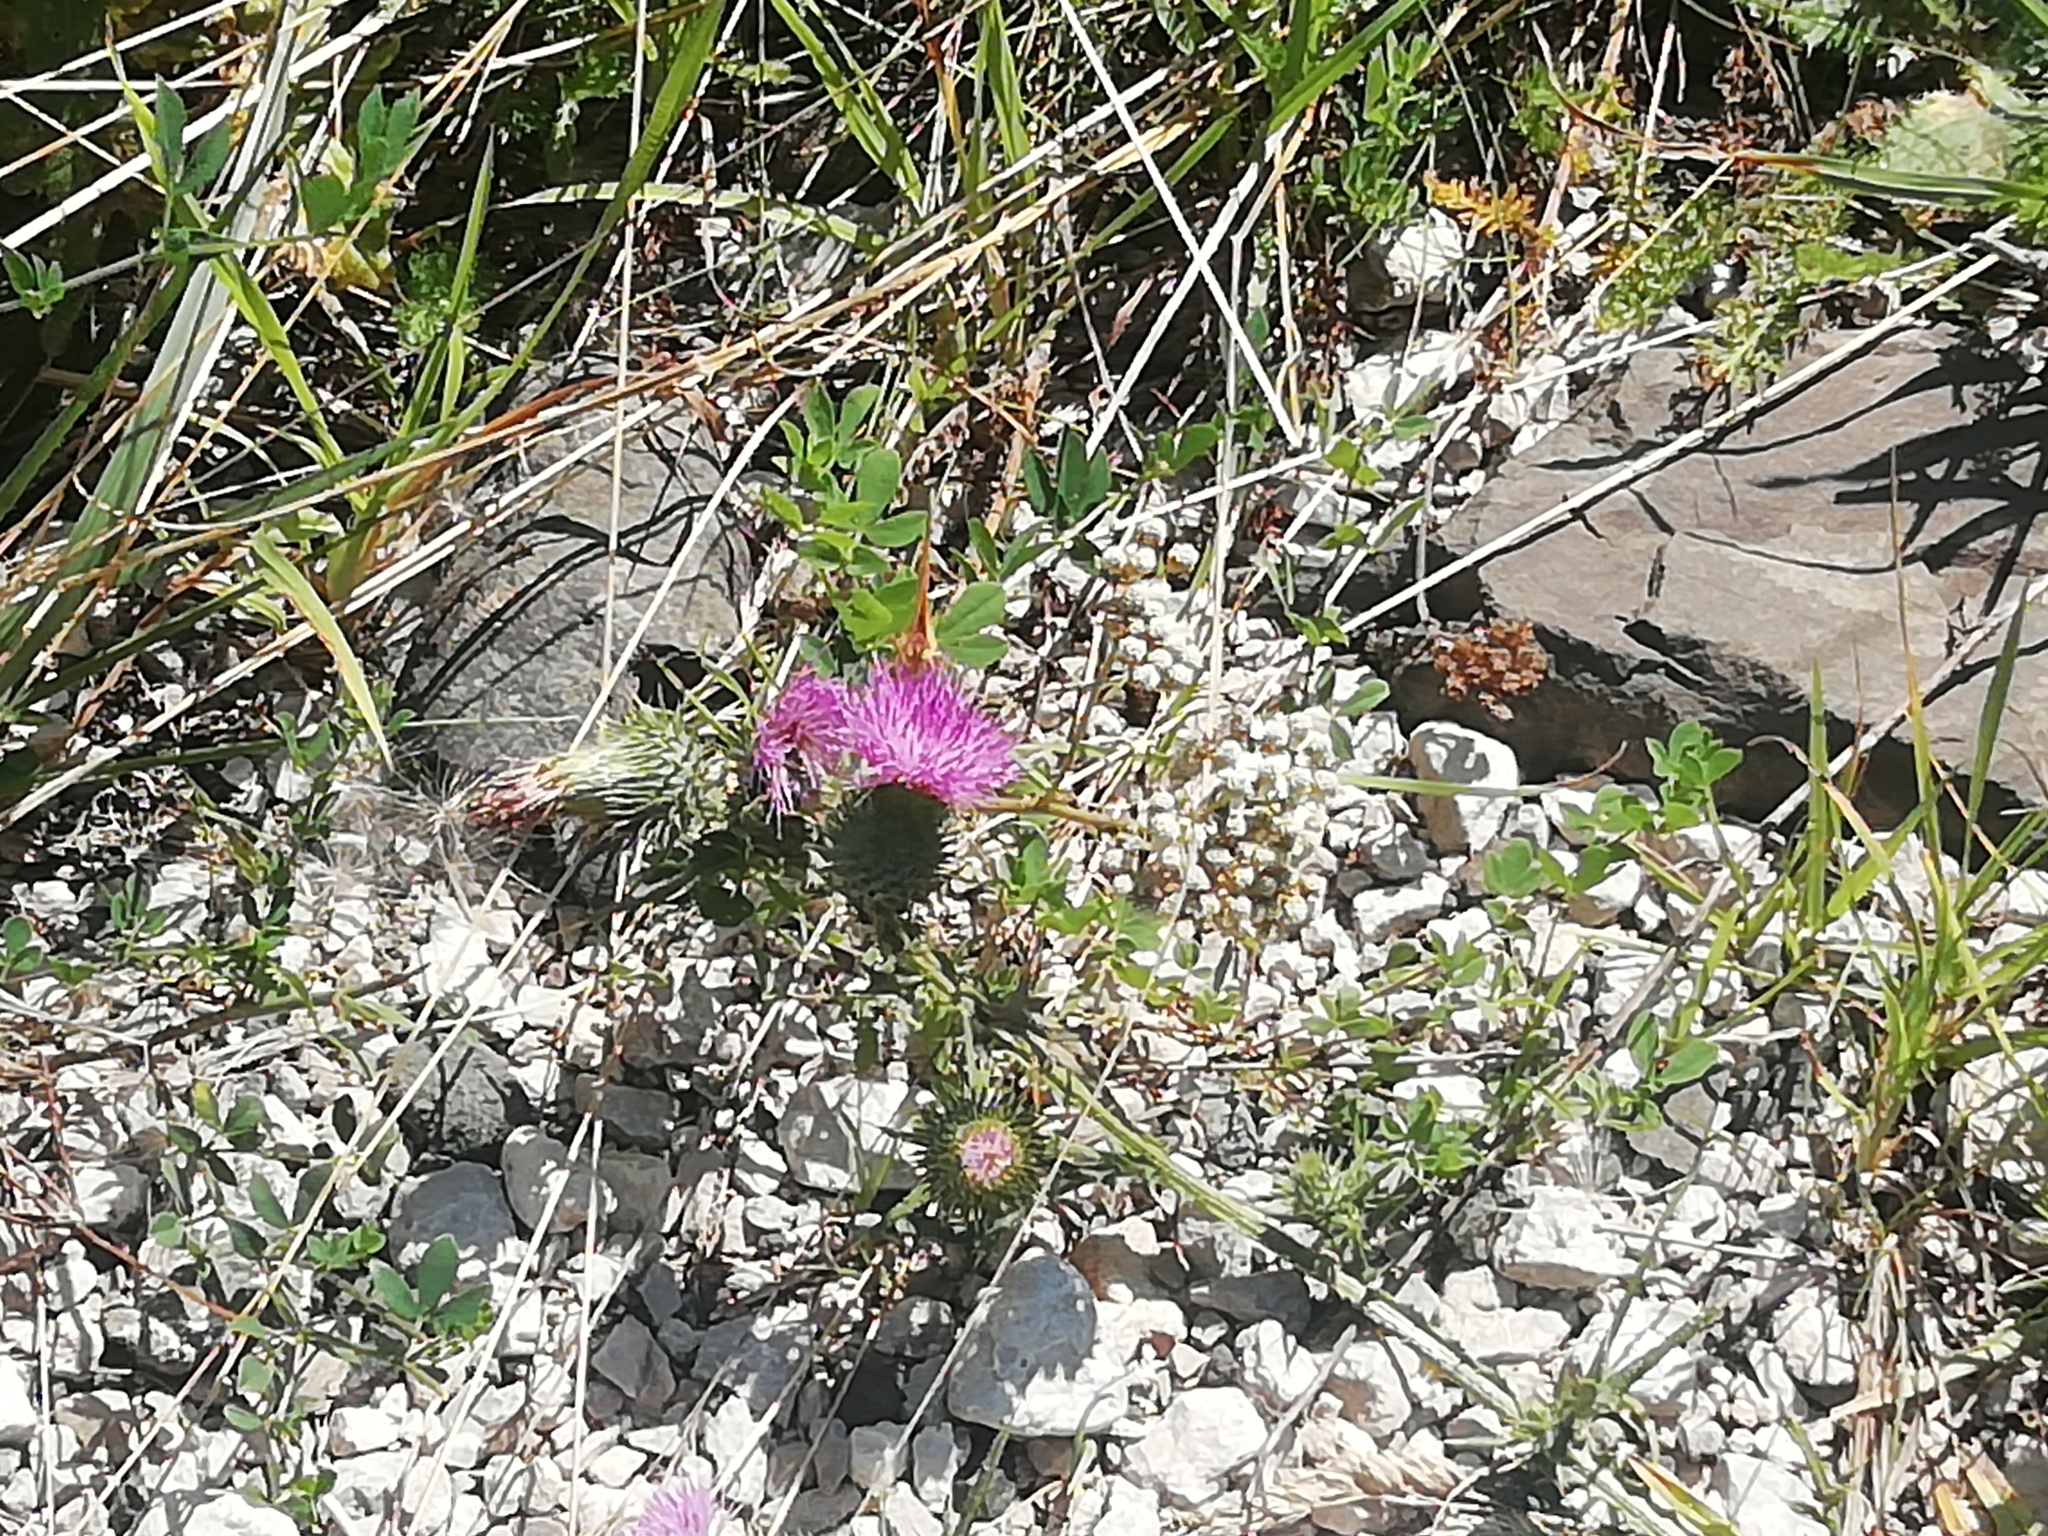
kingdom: Animalia
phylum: Arthropoda
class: Insecta
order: Lepidoptera
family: Pieridae
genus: Colias
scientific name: Colias croceus
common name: Clouded yellow
